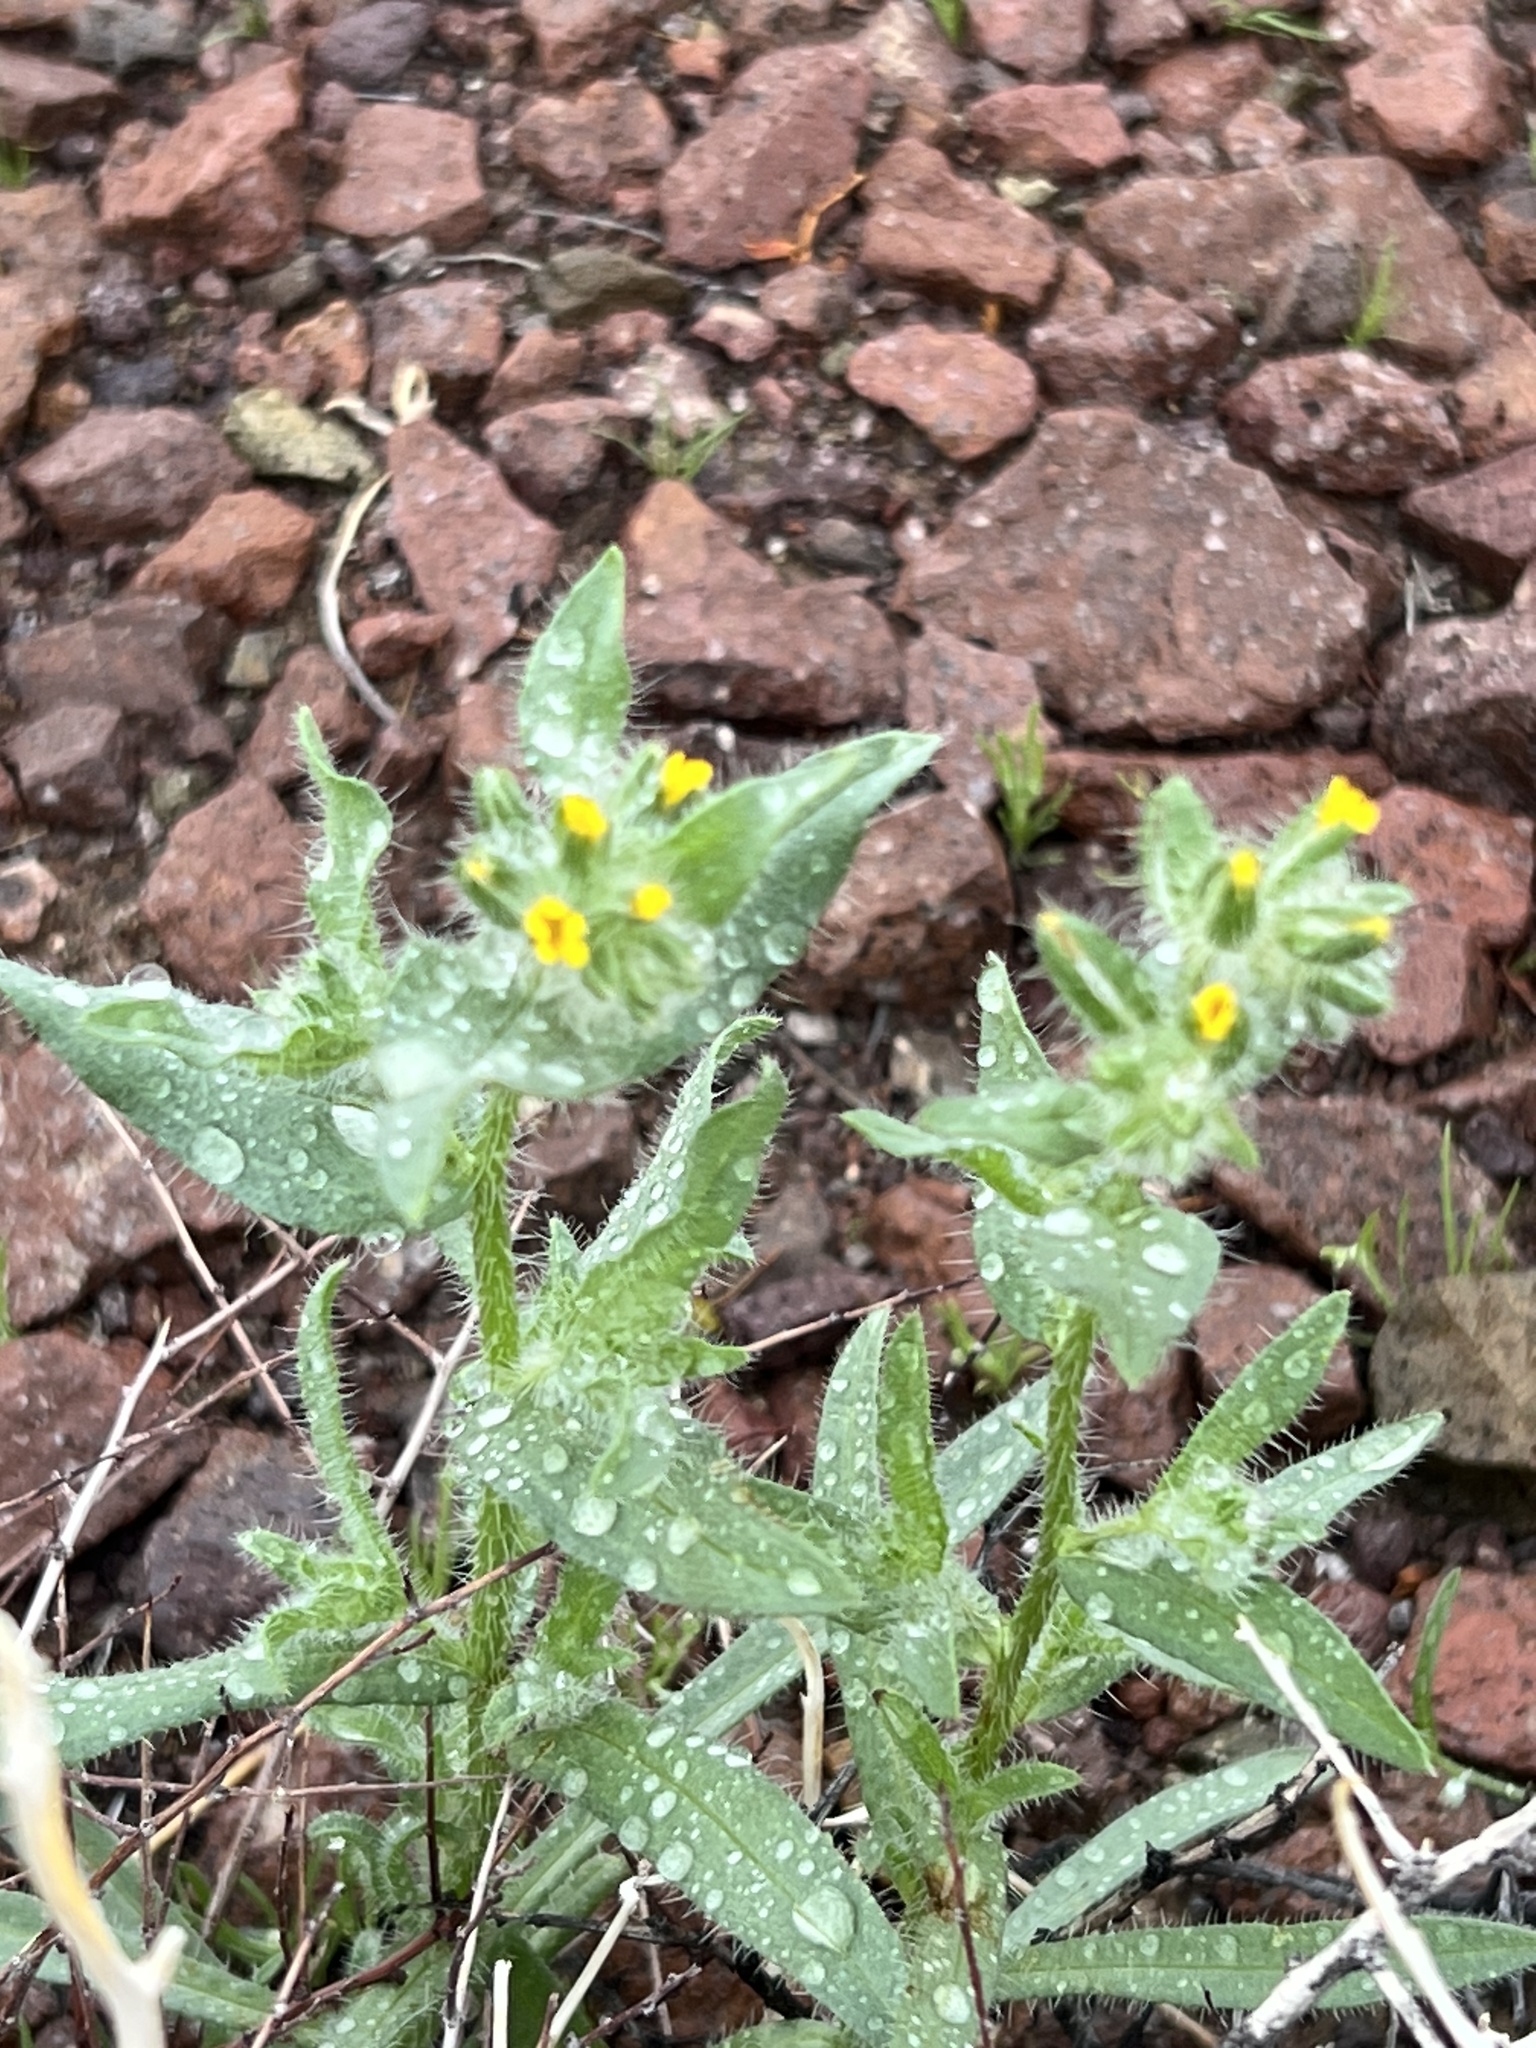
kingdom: Plantae
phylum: Tracheophyta
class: Magnoliopsida
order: Boraginales
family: Boraginaceae
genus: Amsinckia
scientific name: Amsinckia tessellata
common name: Tessellate fiddleneck
